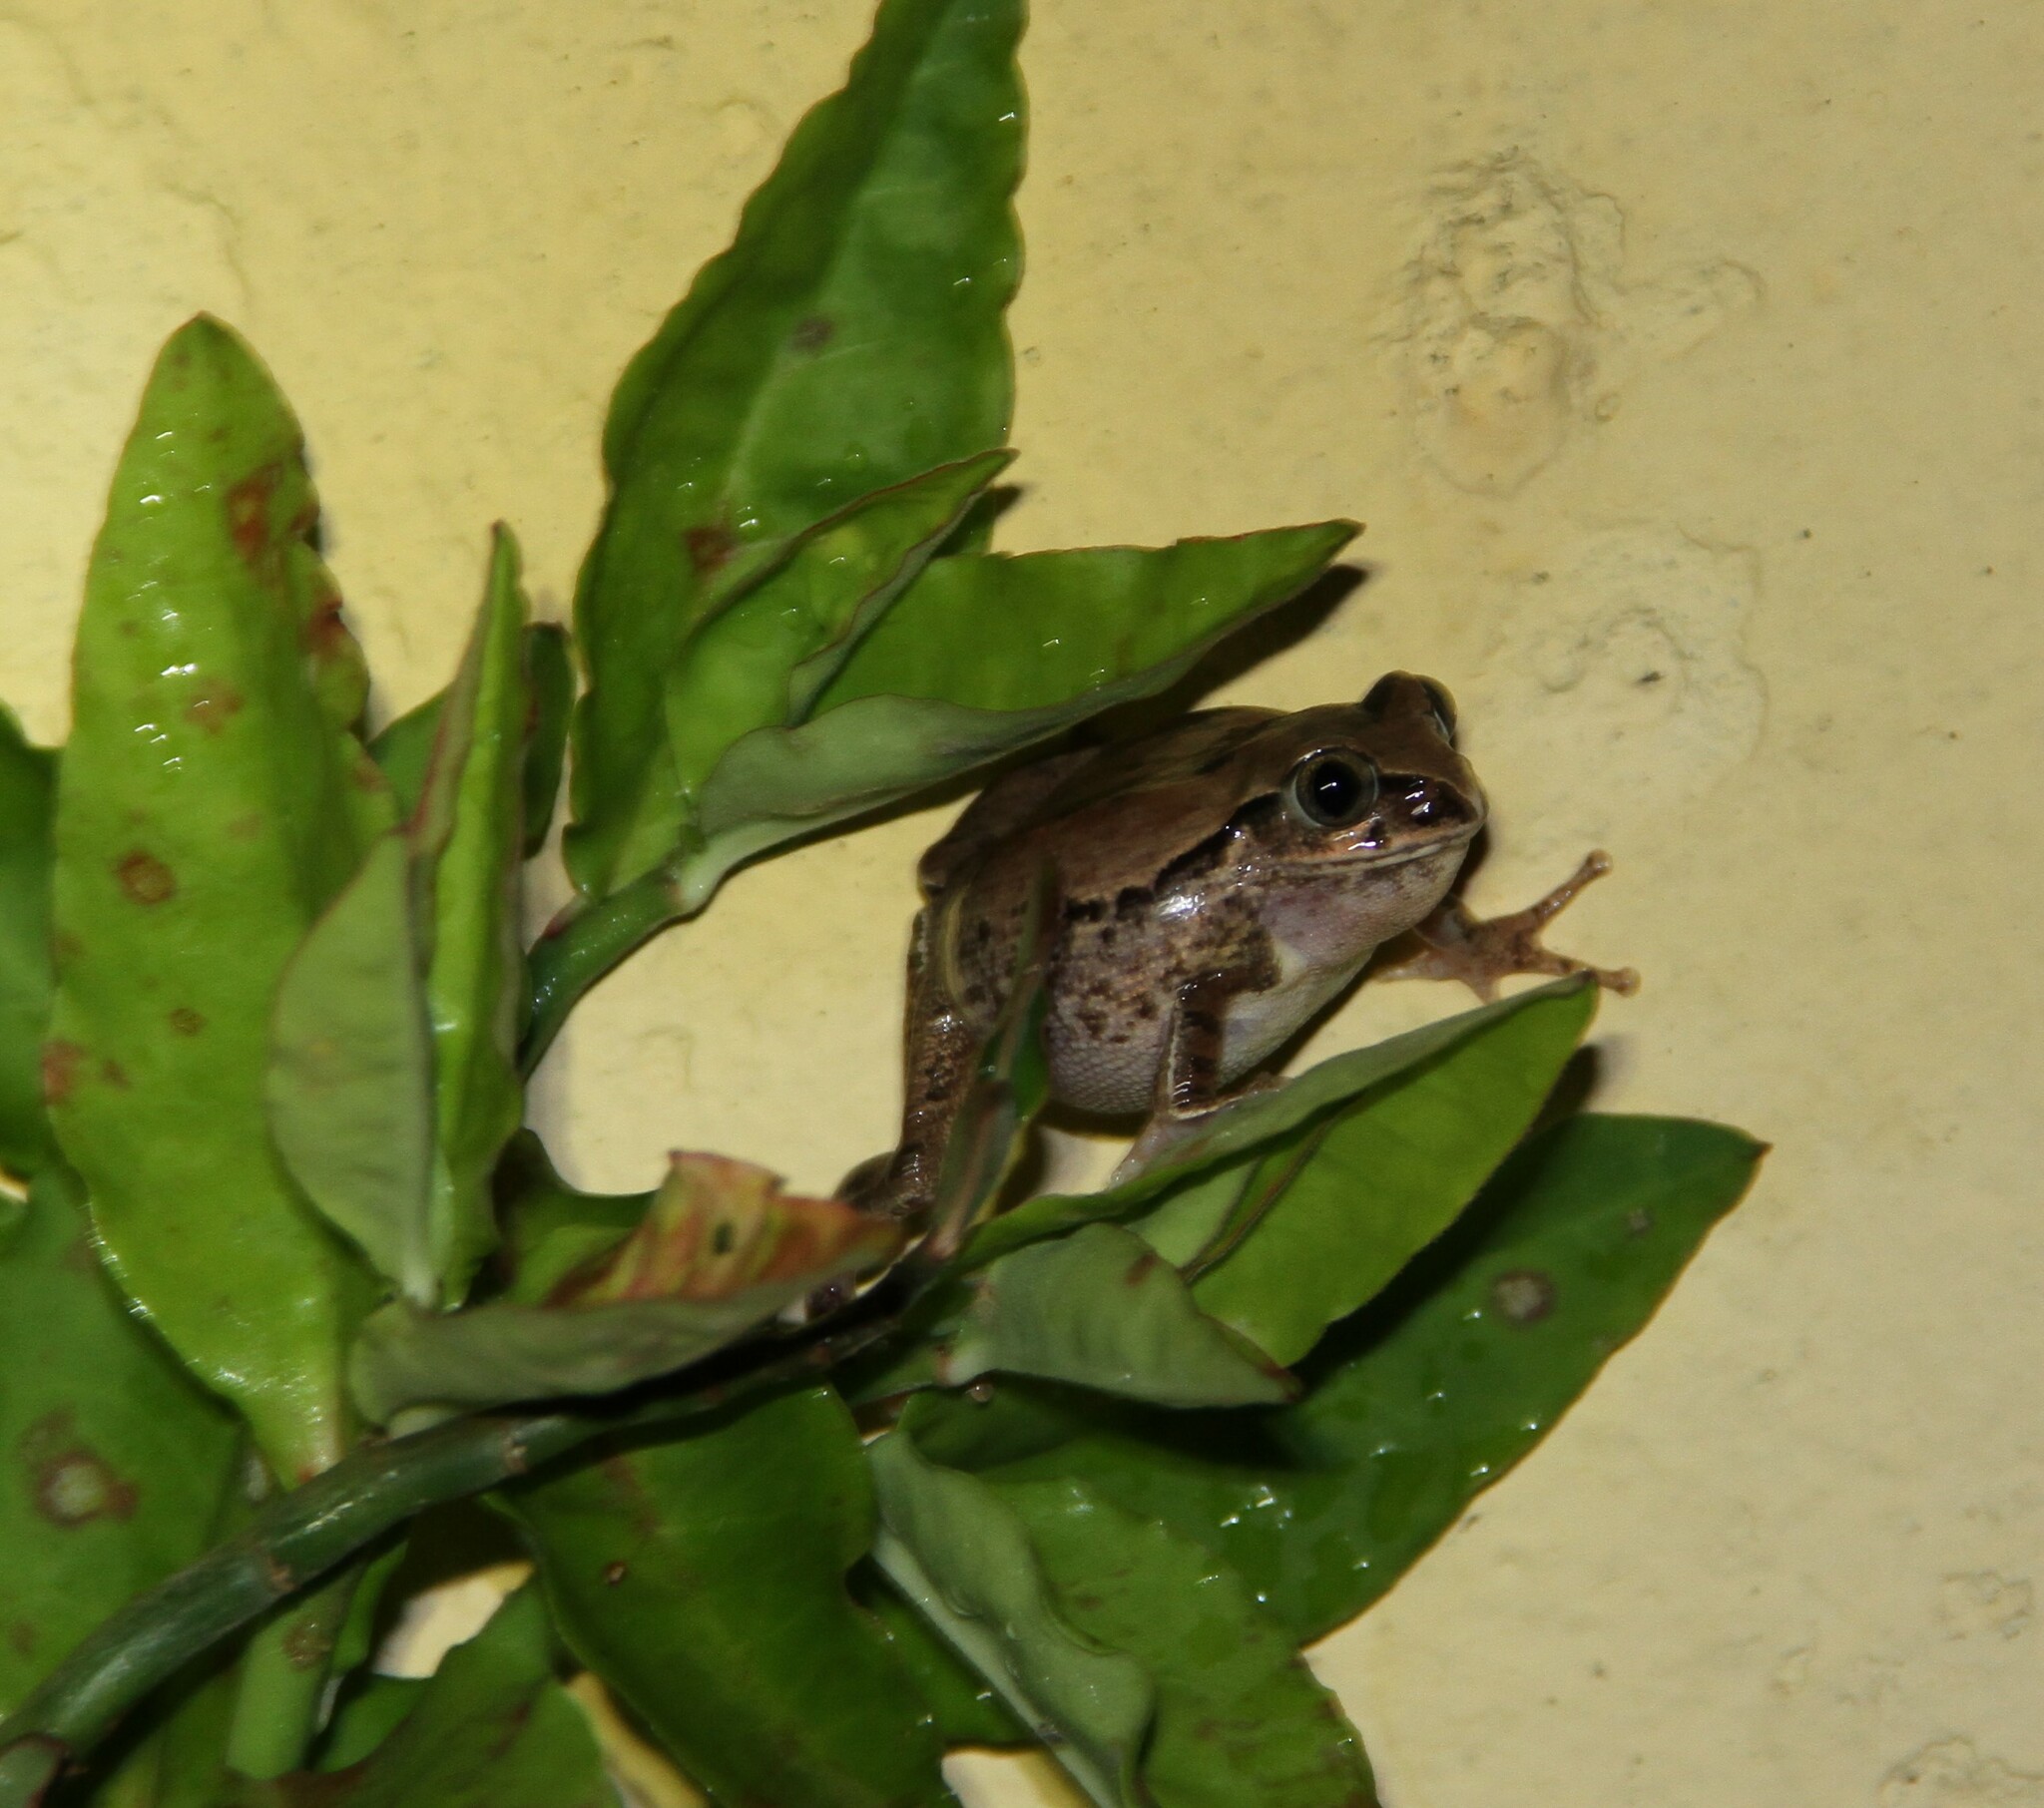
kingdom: Animalia
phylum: Chordata
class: Amphibia
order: Anura
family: Arthroleptidae
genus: Leptopelis
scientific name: Leptopelis viridis
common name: Savannah tree frog
